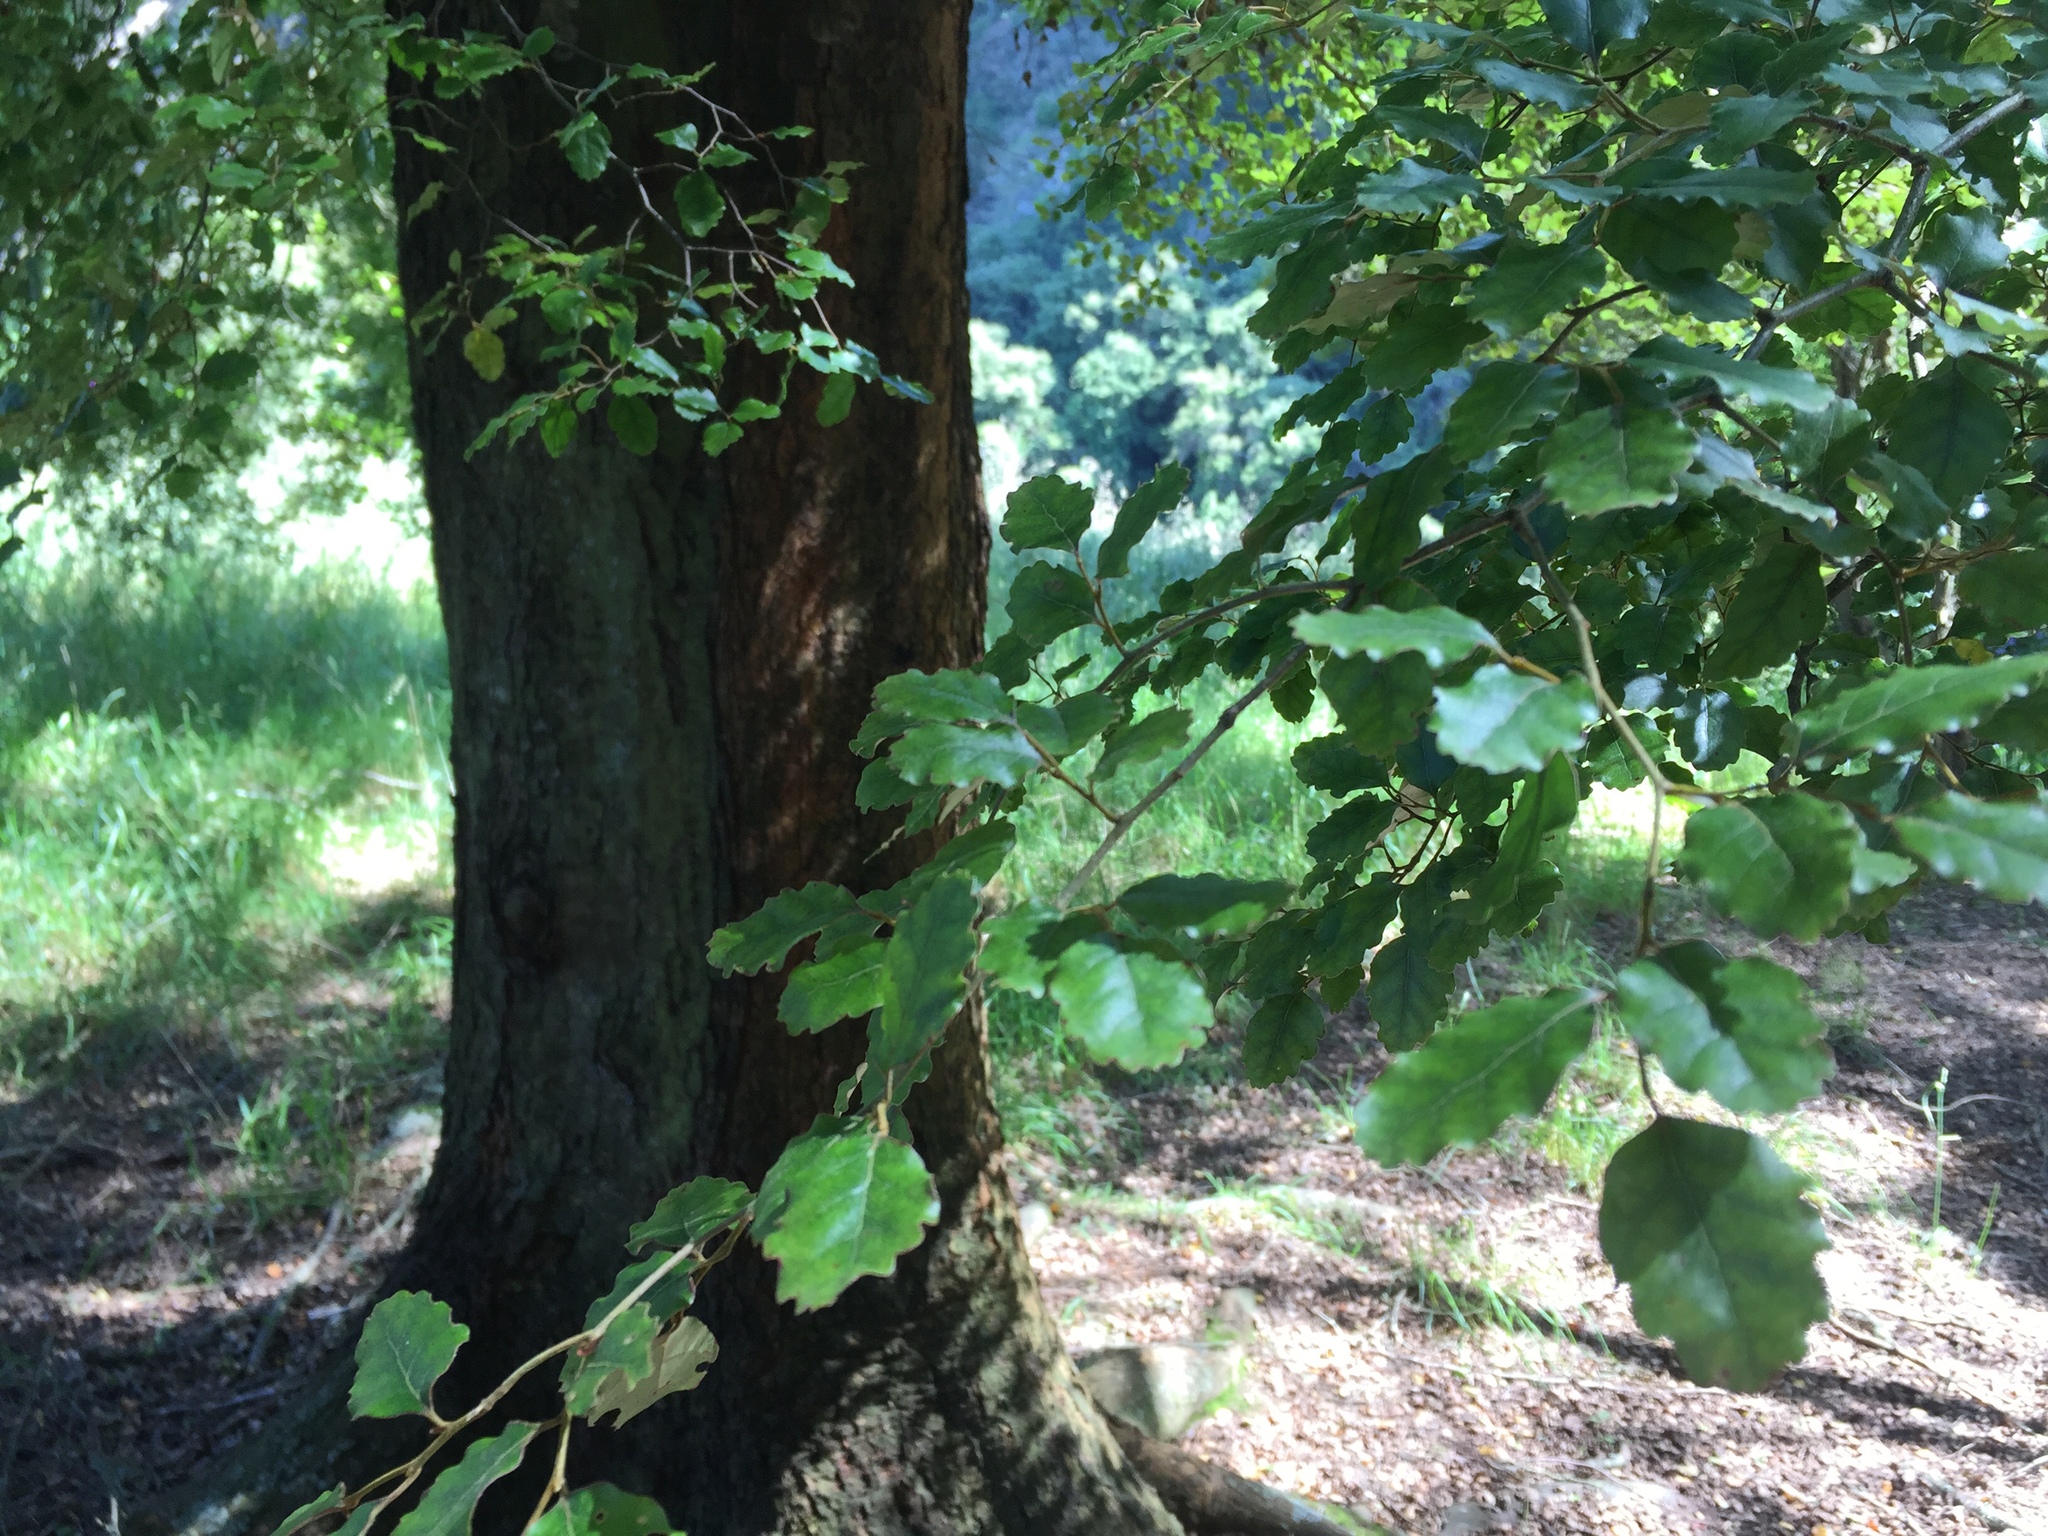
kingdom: Plantae
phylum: Tracheophyta
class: Magnoliopsida
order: Fagales
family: Nothofagaceae
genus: Nothofagus
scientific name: Nothofagus fusca
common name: Red beech
